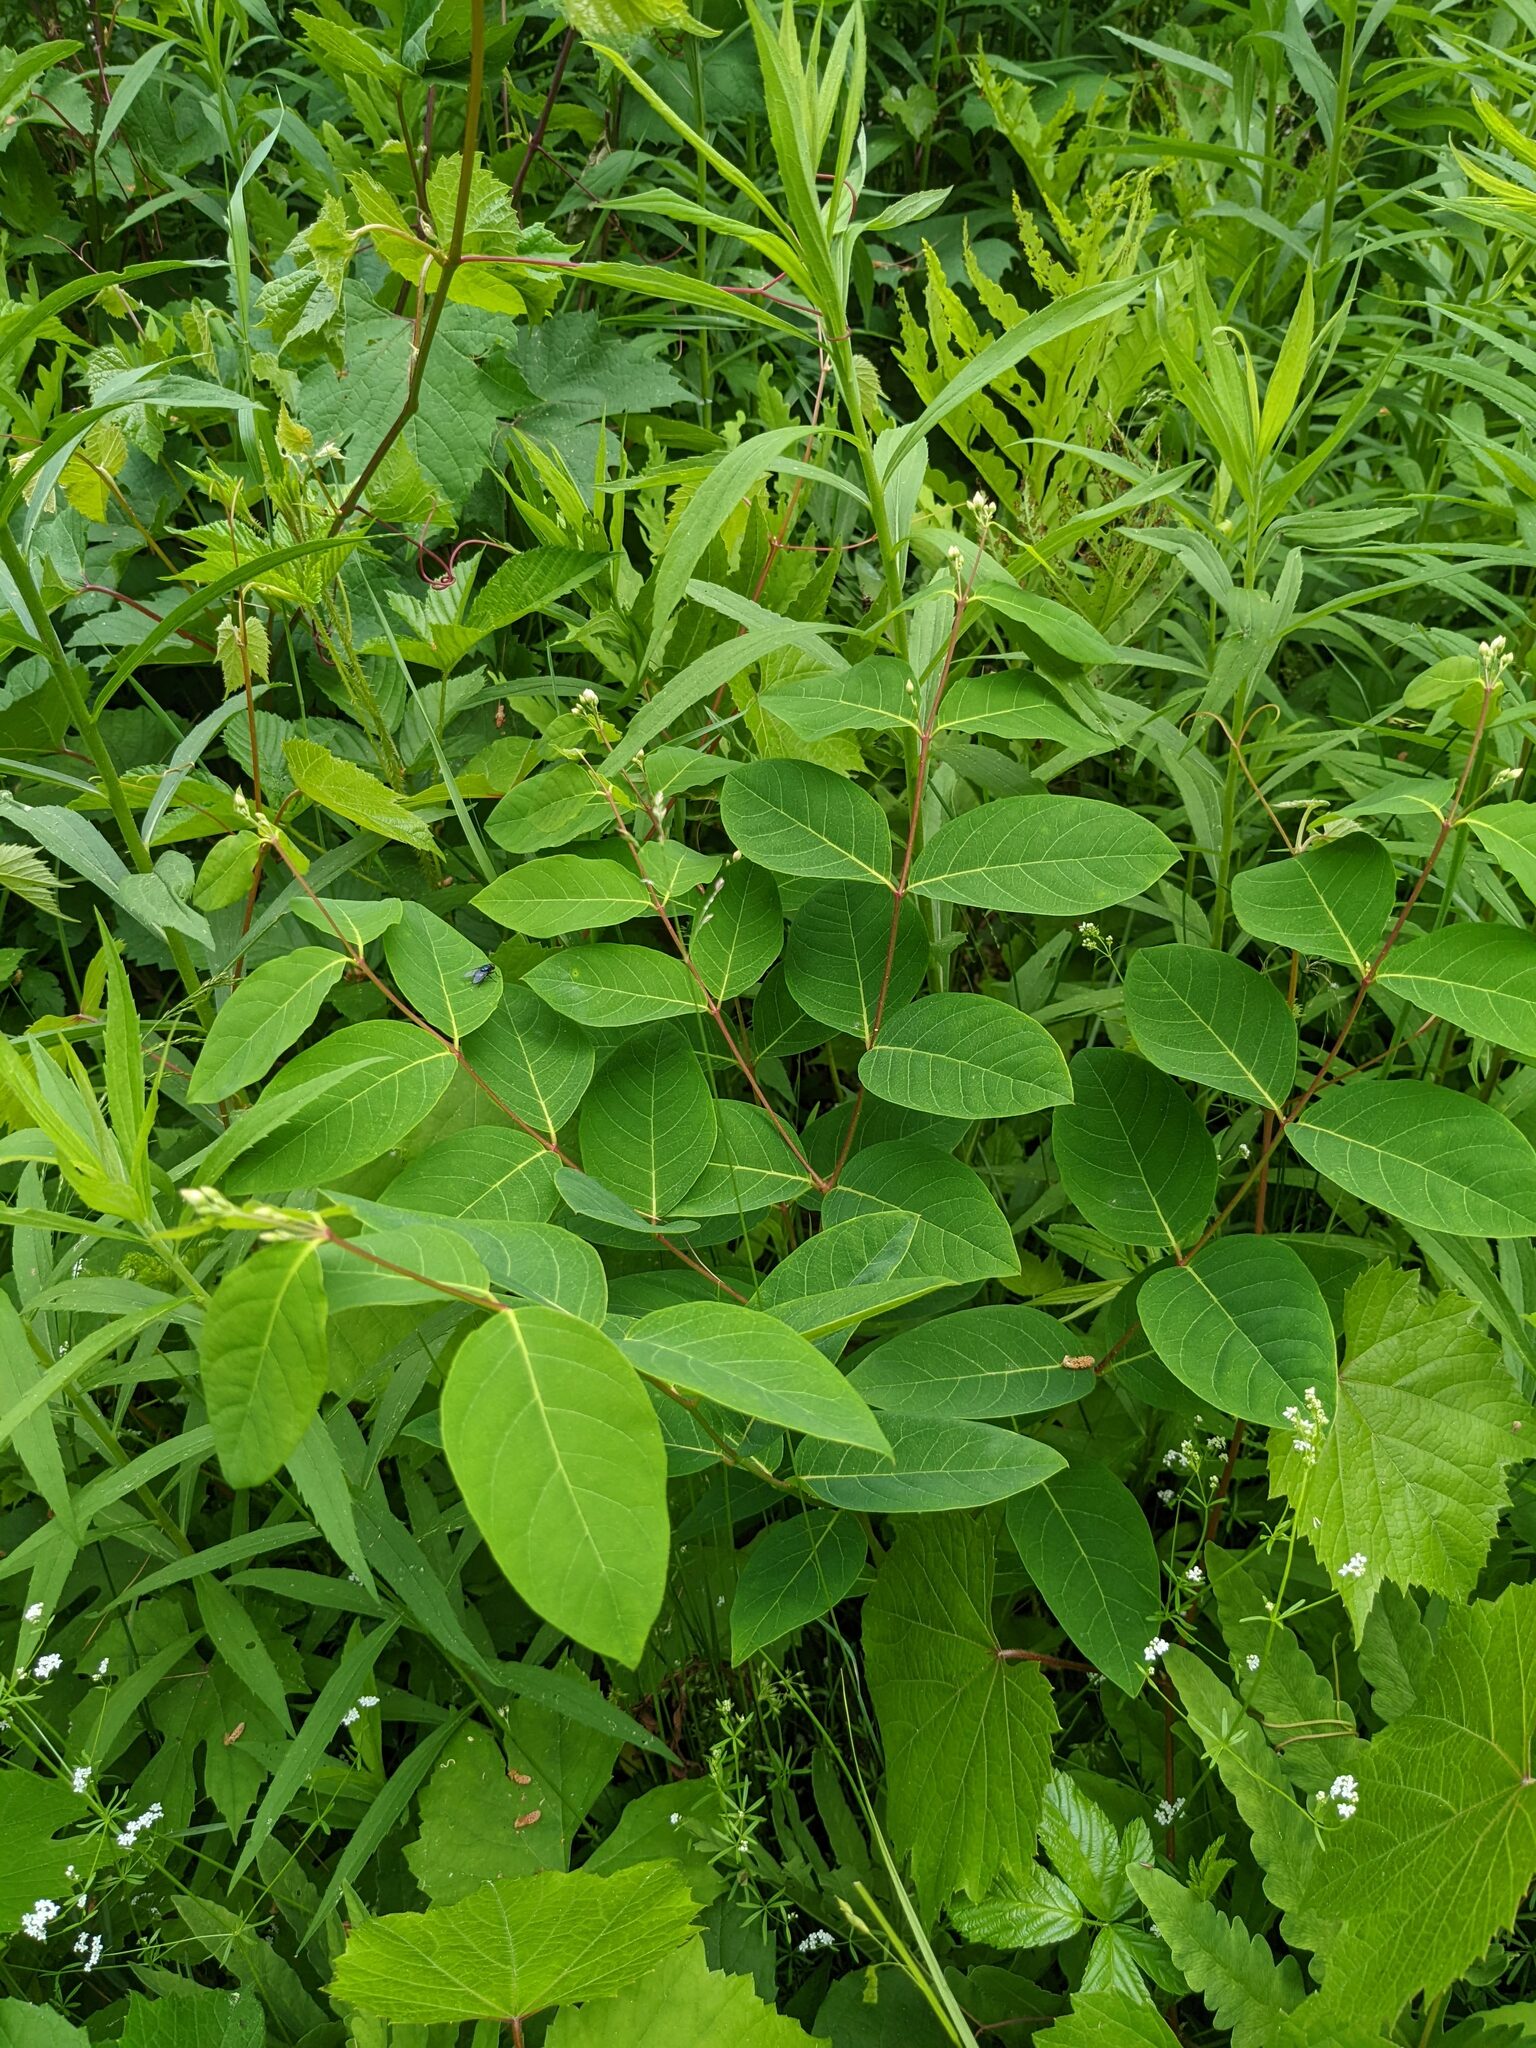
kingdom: Plantae
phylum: Tracheophyta
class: Magnoliopsida
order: Gentianales
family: Apocynaceae
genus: Apocynum
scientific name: Apocynum androsaemifolium
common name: Spreading dogbane
